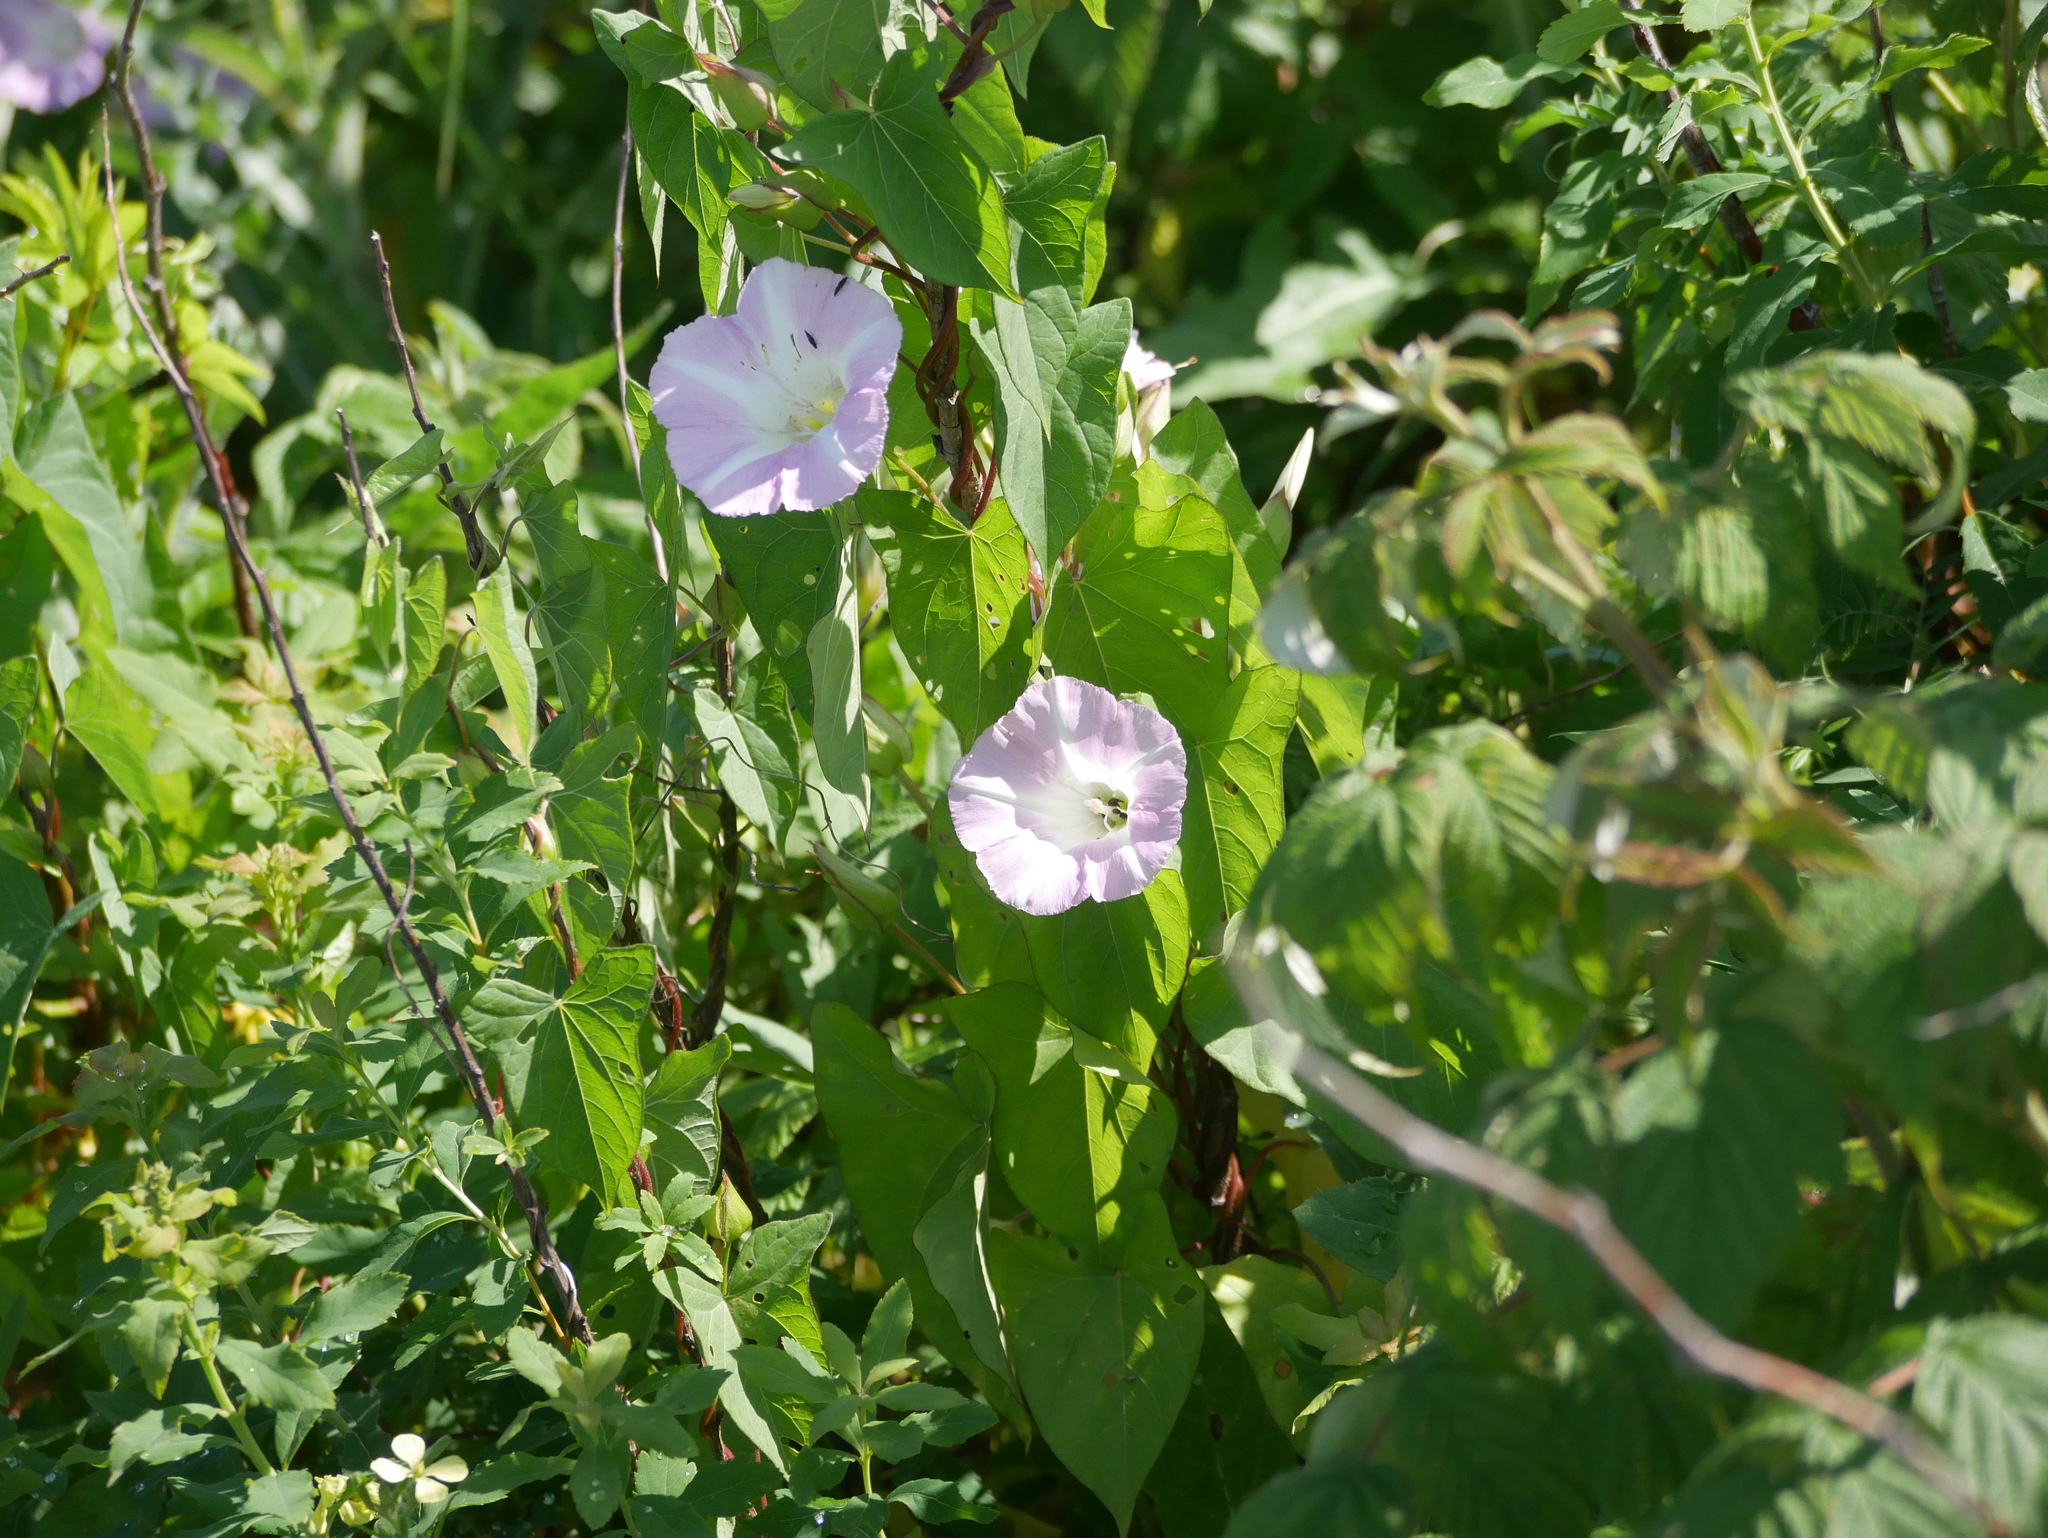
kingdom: Plantae
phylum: Tracheophyta
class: Magnoliopsida
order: Solanales
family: Convolvulaceae
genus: Calystegia
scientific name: Calystegia sepium
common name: Hedge bindweed
